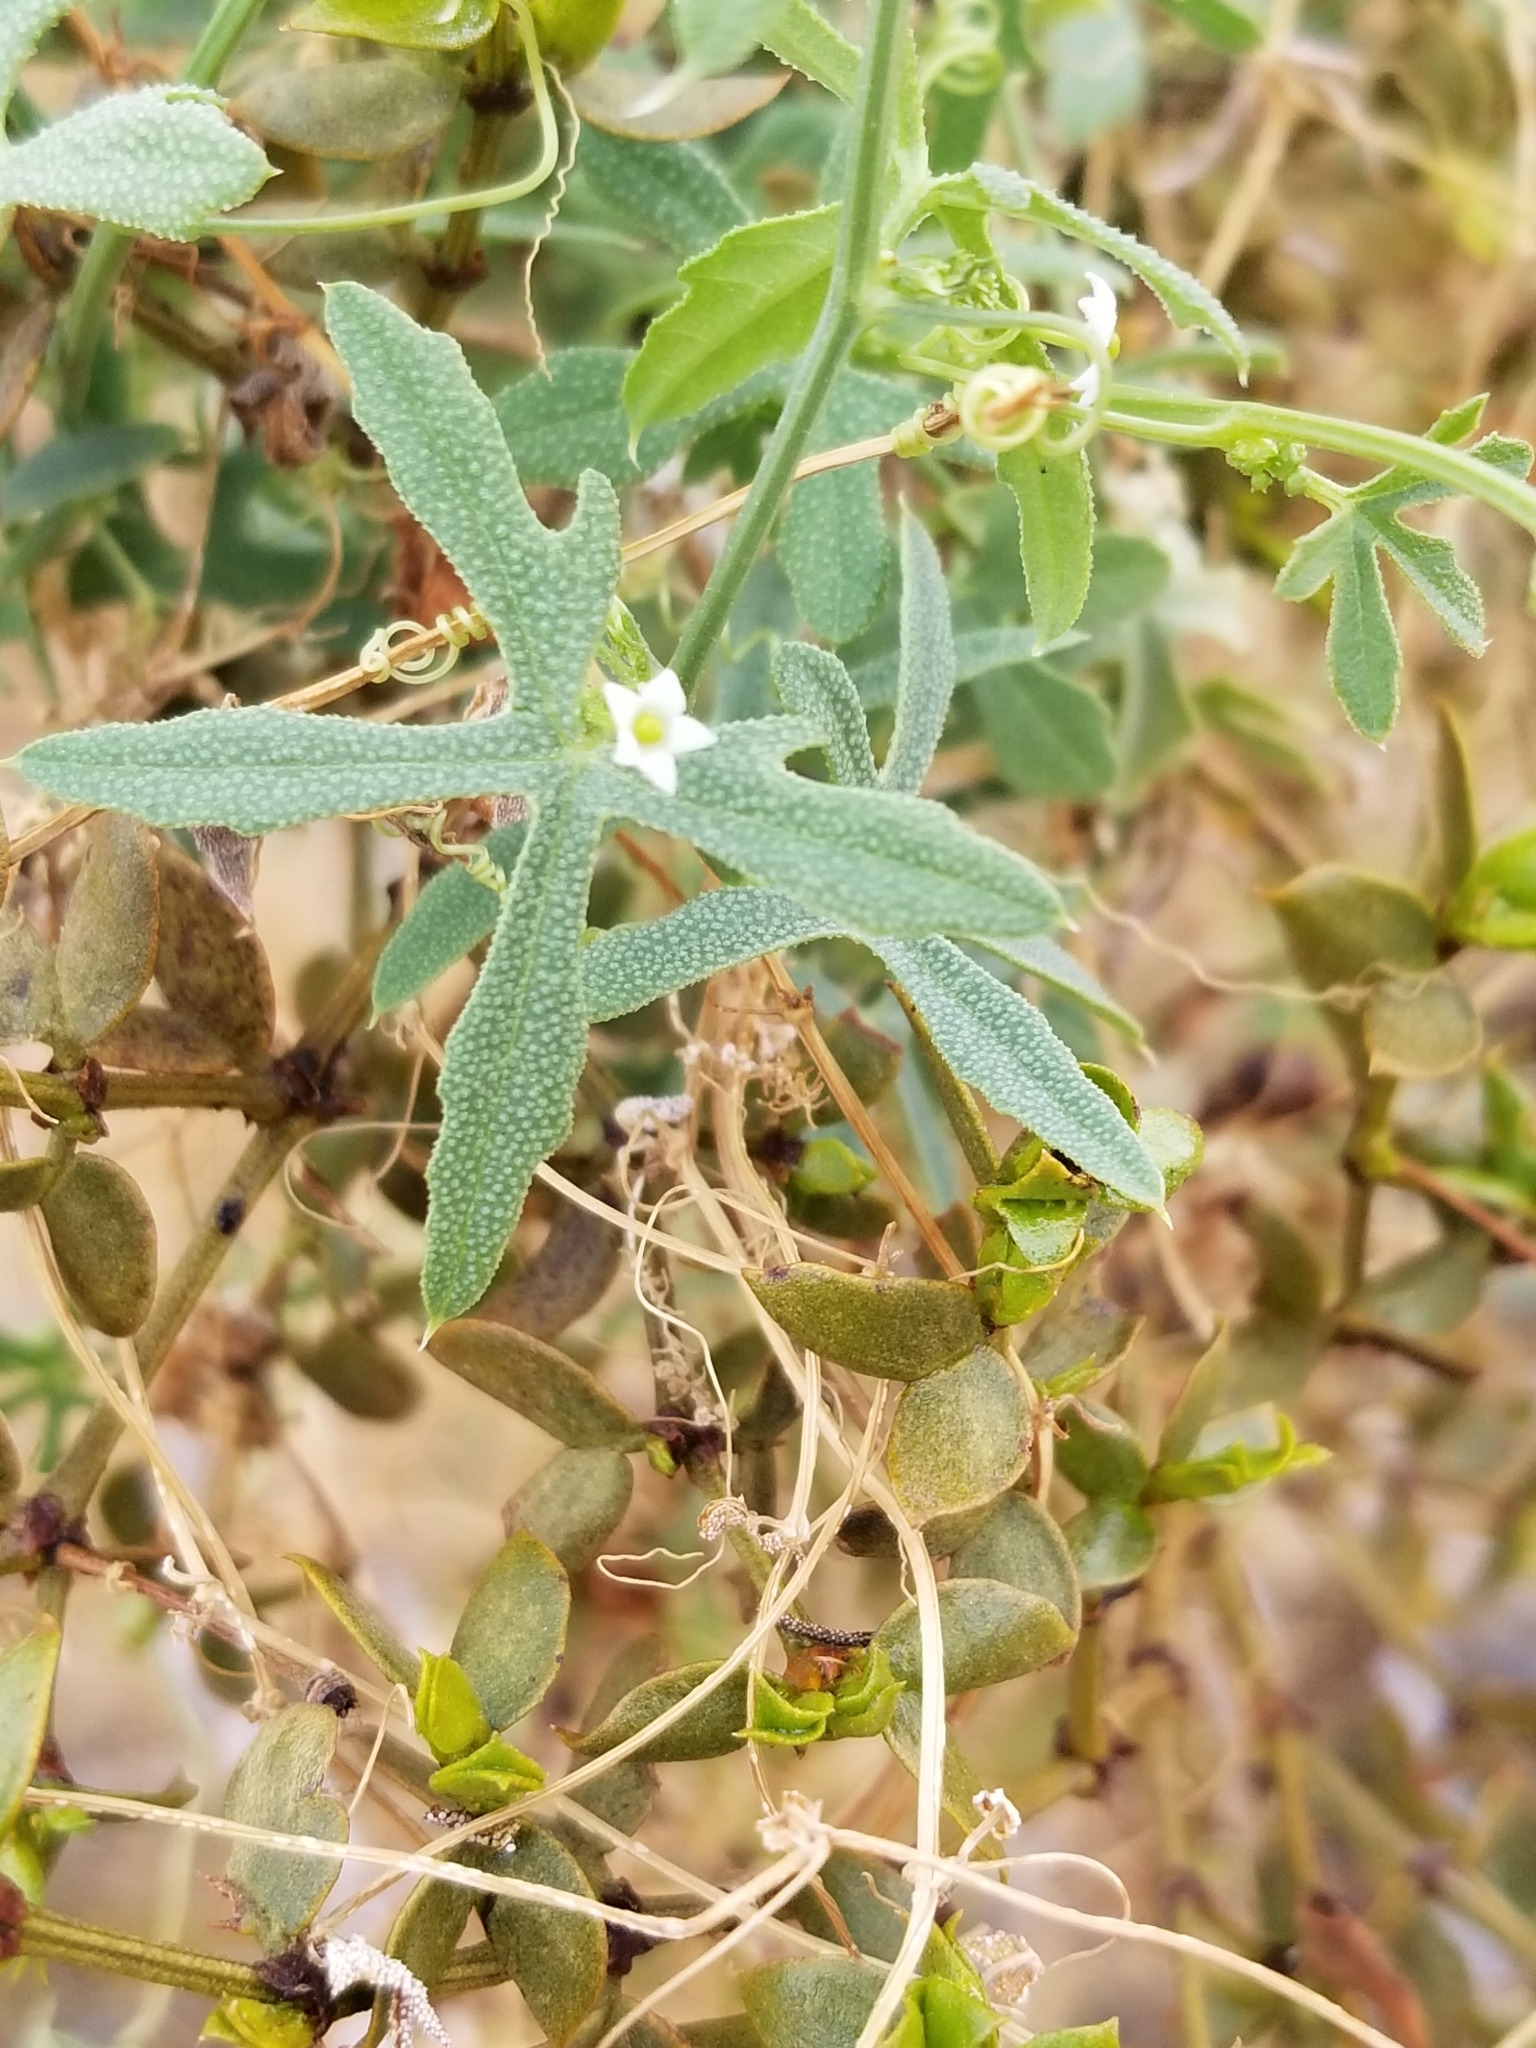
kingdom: Plantae
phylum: Tracheophyta
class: Magnoliopsida
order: Cucurbitales
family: Cucurbitaceae
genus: Echinopepon
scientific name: Echinopepon bigelovii
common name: Desert starvine
